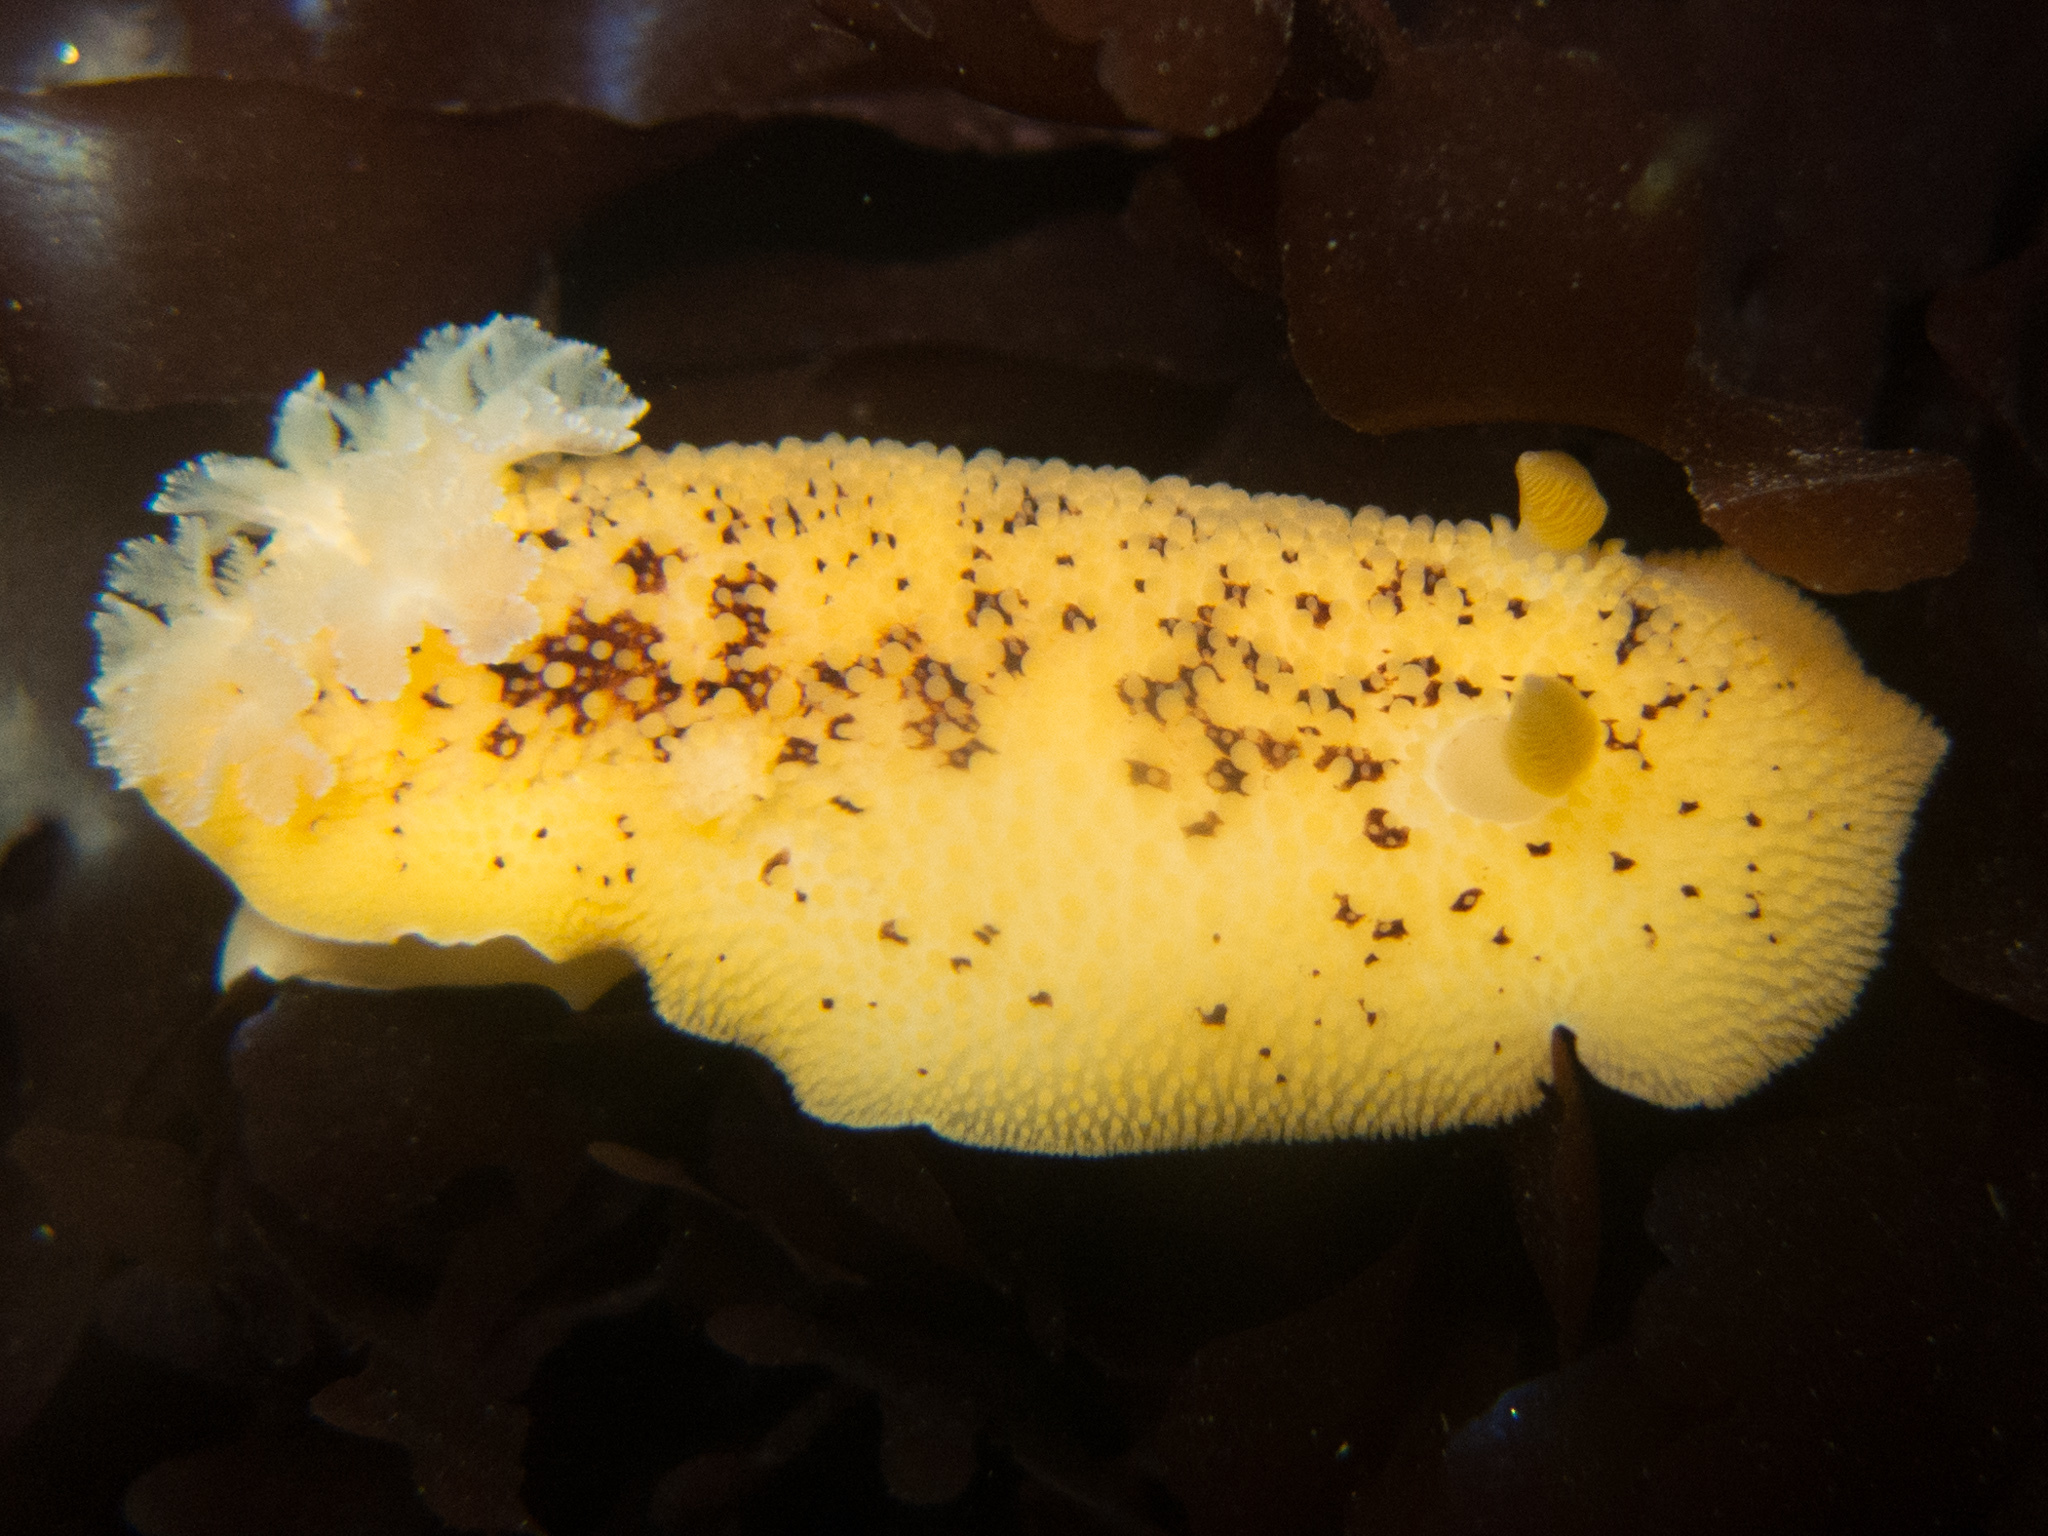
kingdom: Animalia
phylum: Mollusca
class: Gastropoda
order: Nudibranchia
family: Discodorididae
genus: Peltodoris
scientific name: Peltodoris nobilis
